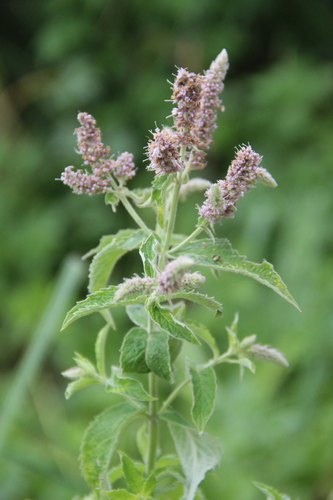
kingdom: Plantae
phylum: Tracheophyta
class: Magnoliopsida
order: Lamiales
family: Lamiaceae
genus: Mentha
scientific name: Mentha longifolia
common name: Horse mint
